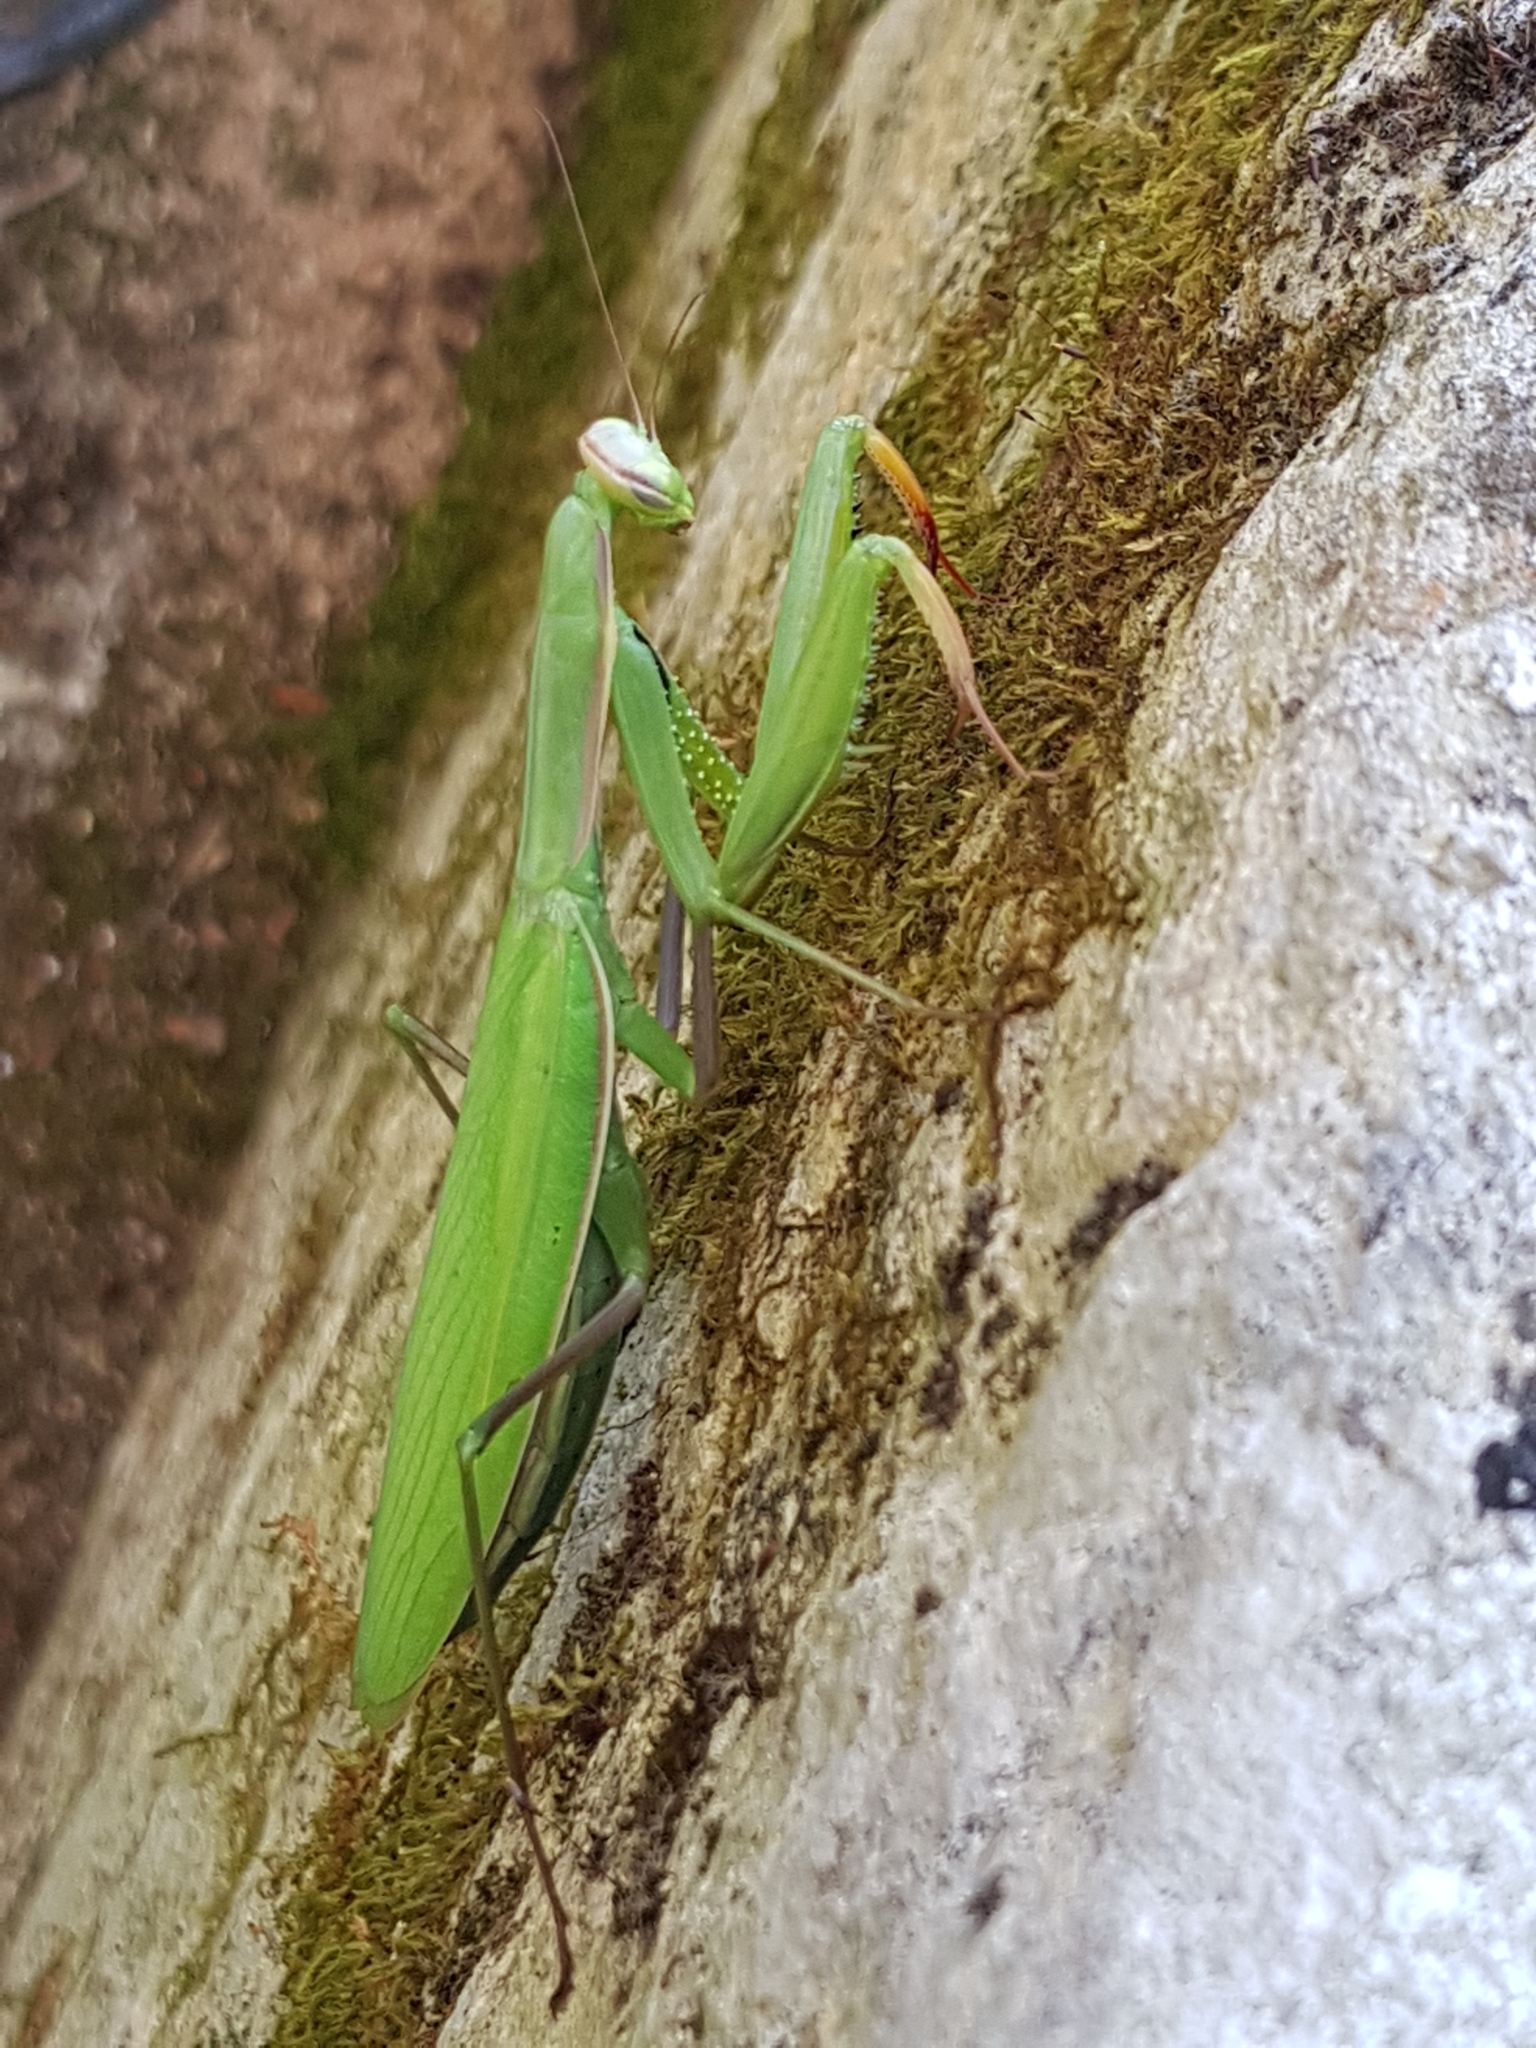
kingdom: Animalia
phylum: Arthropoda
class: Insecta
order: Mantodea
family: Mantidae
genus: Mantis
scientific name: Mantis religiosa
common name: Praying mantis
